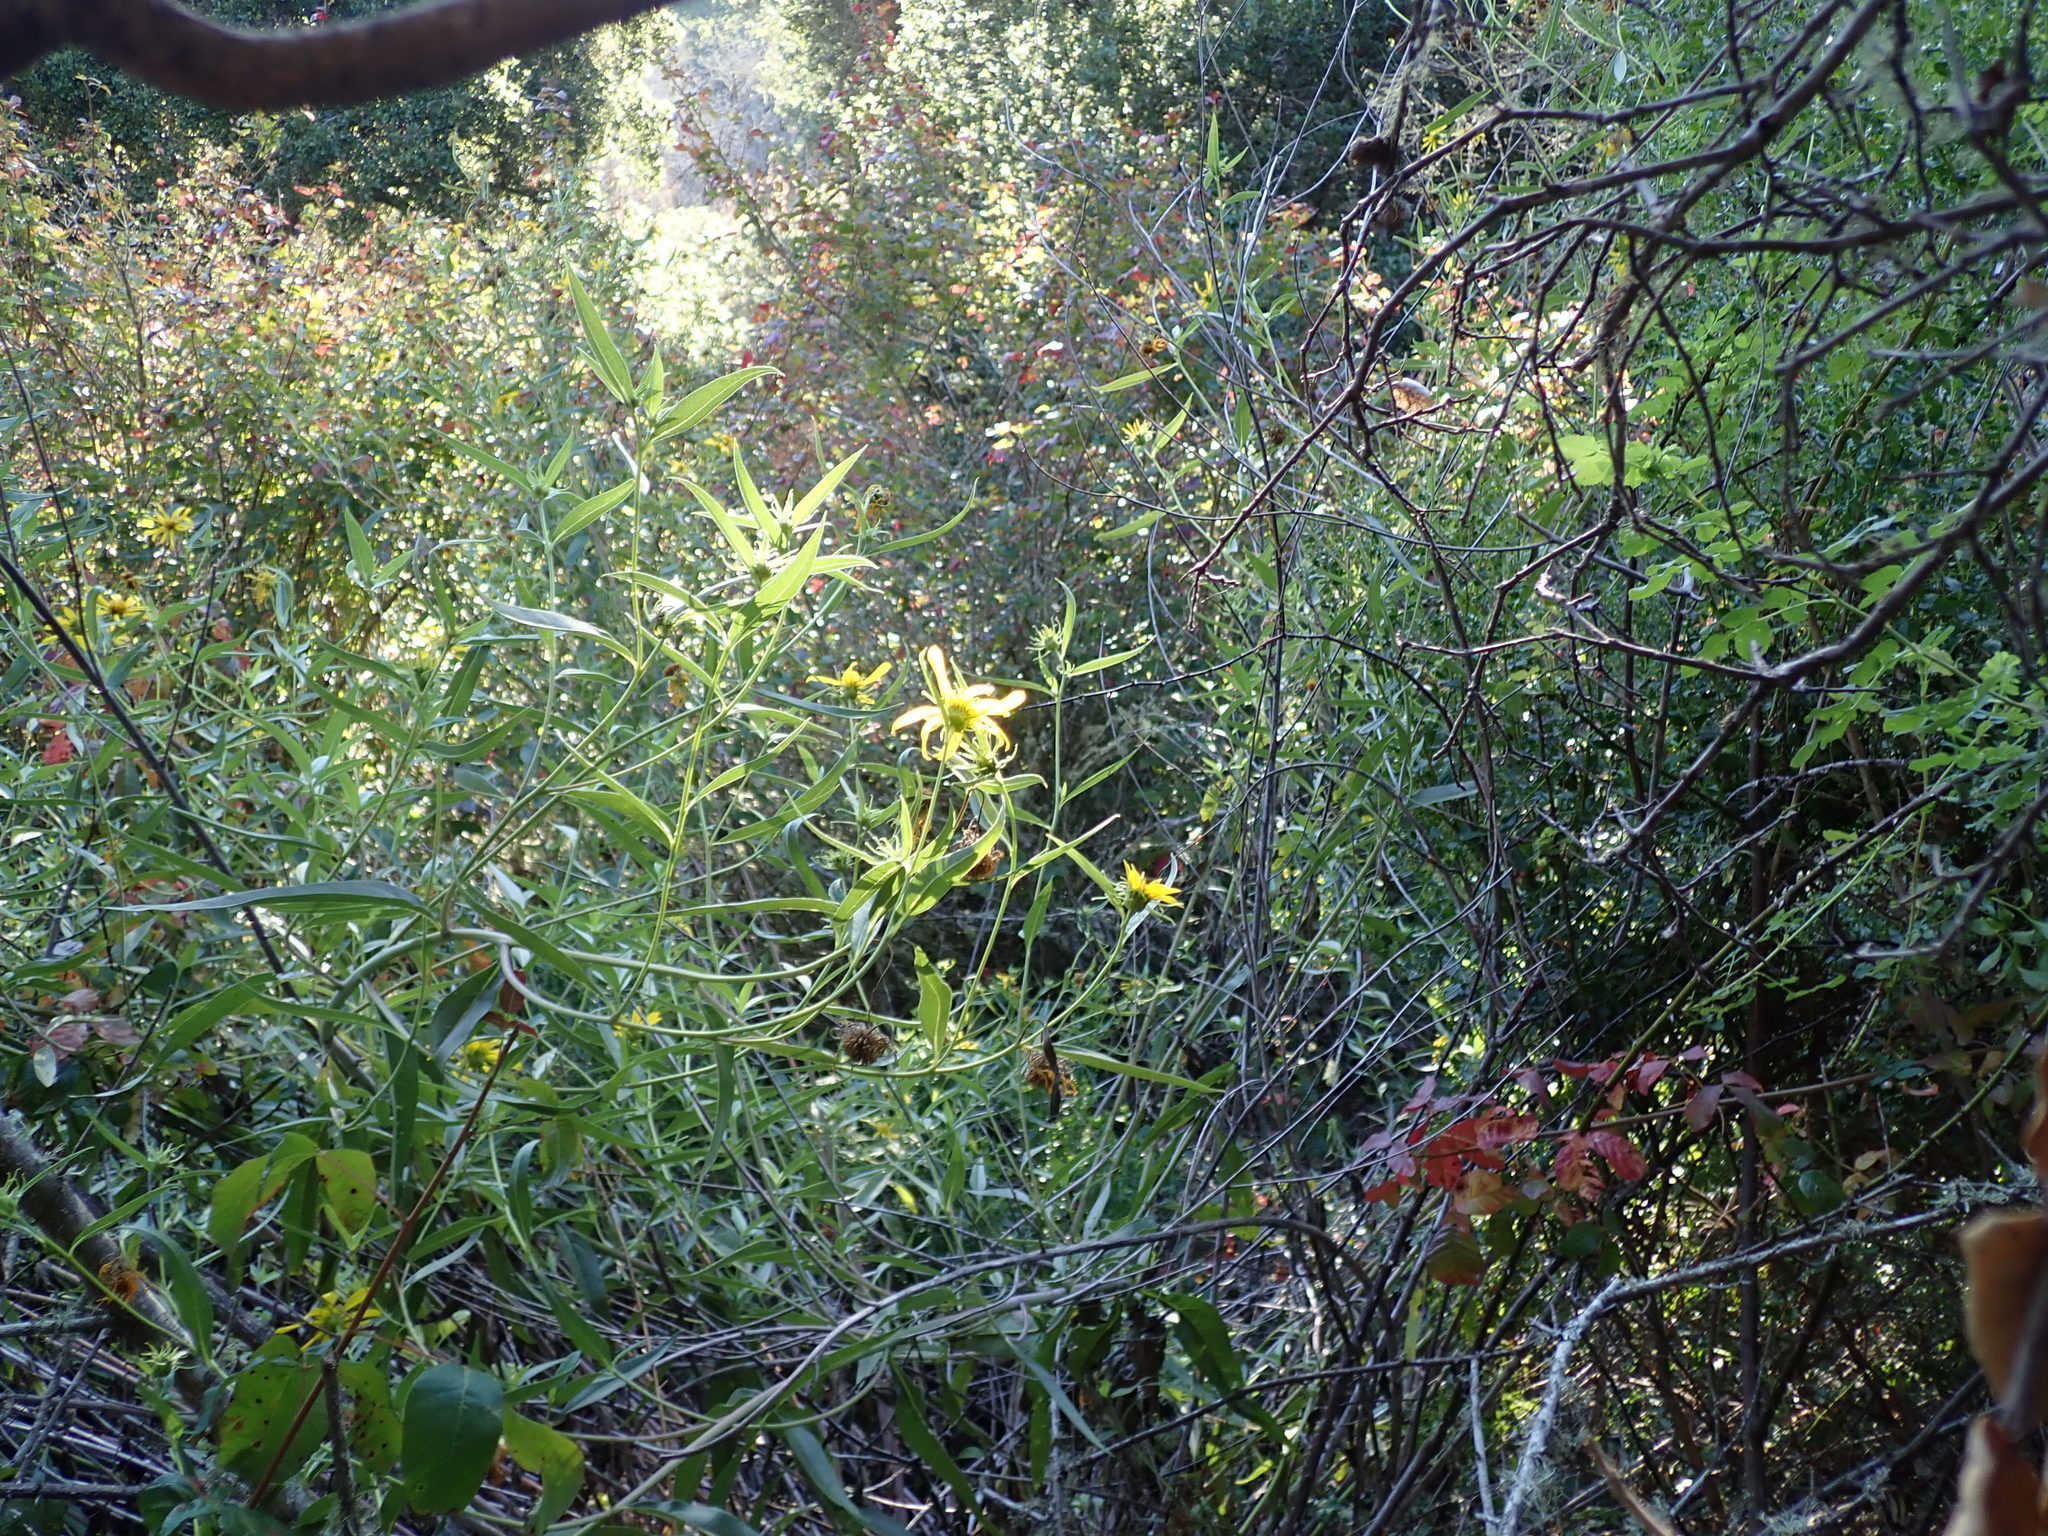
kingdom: Plantae
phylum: Tracheophyta
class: Magnoliopsida
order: Asterales
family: Asteraceae
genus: Helianthus
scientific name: Helianthus californicus
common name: California sunflower
